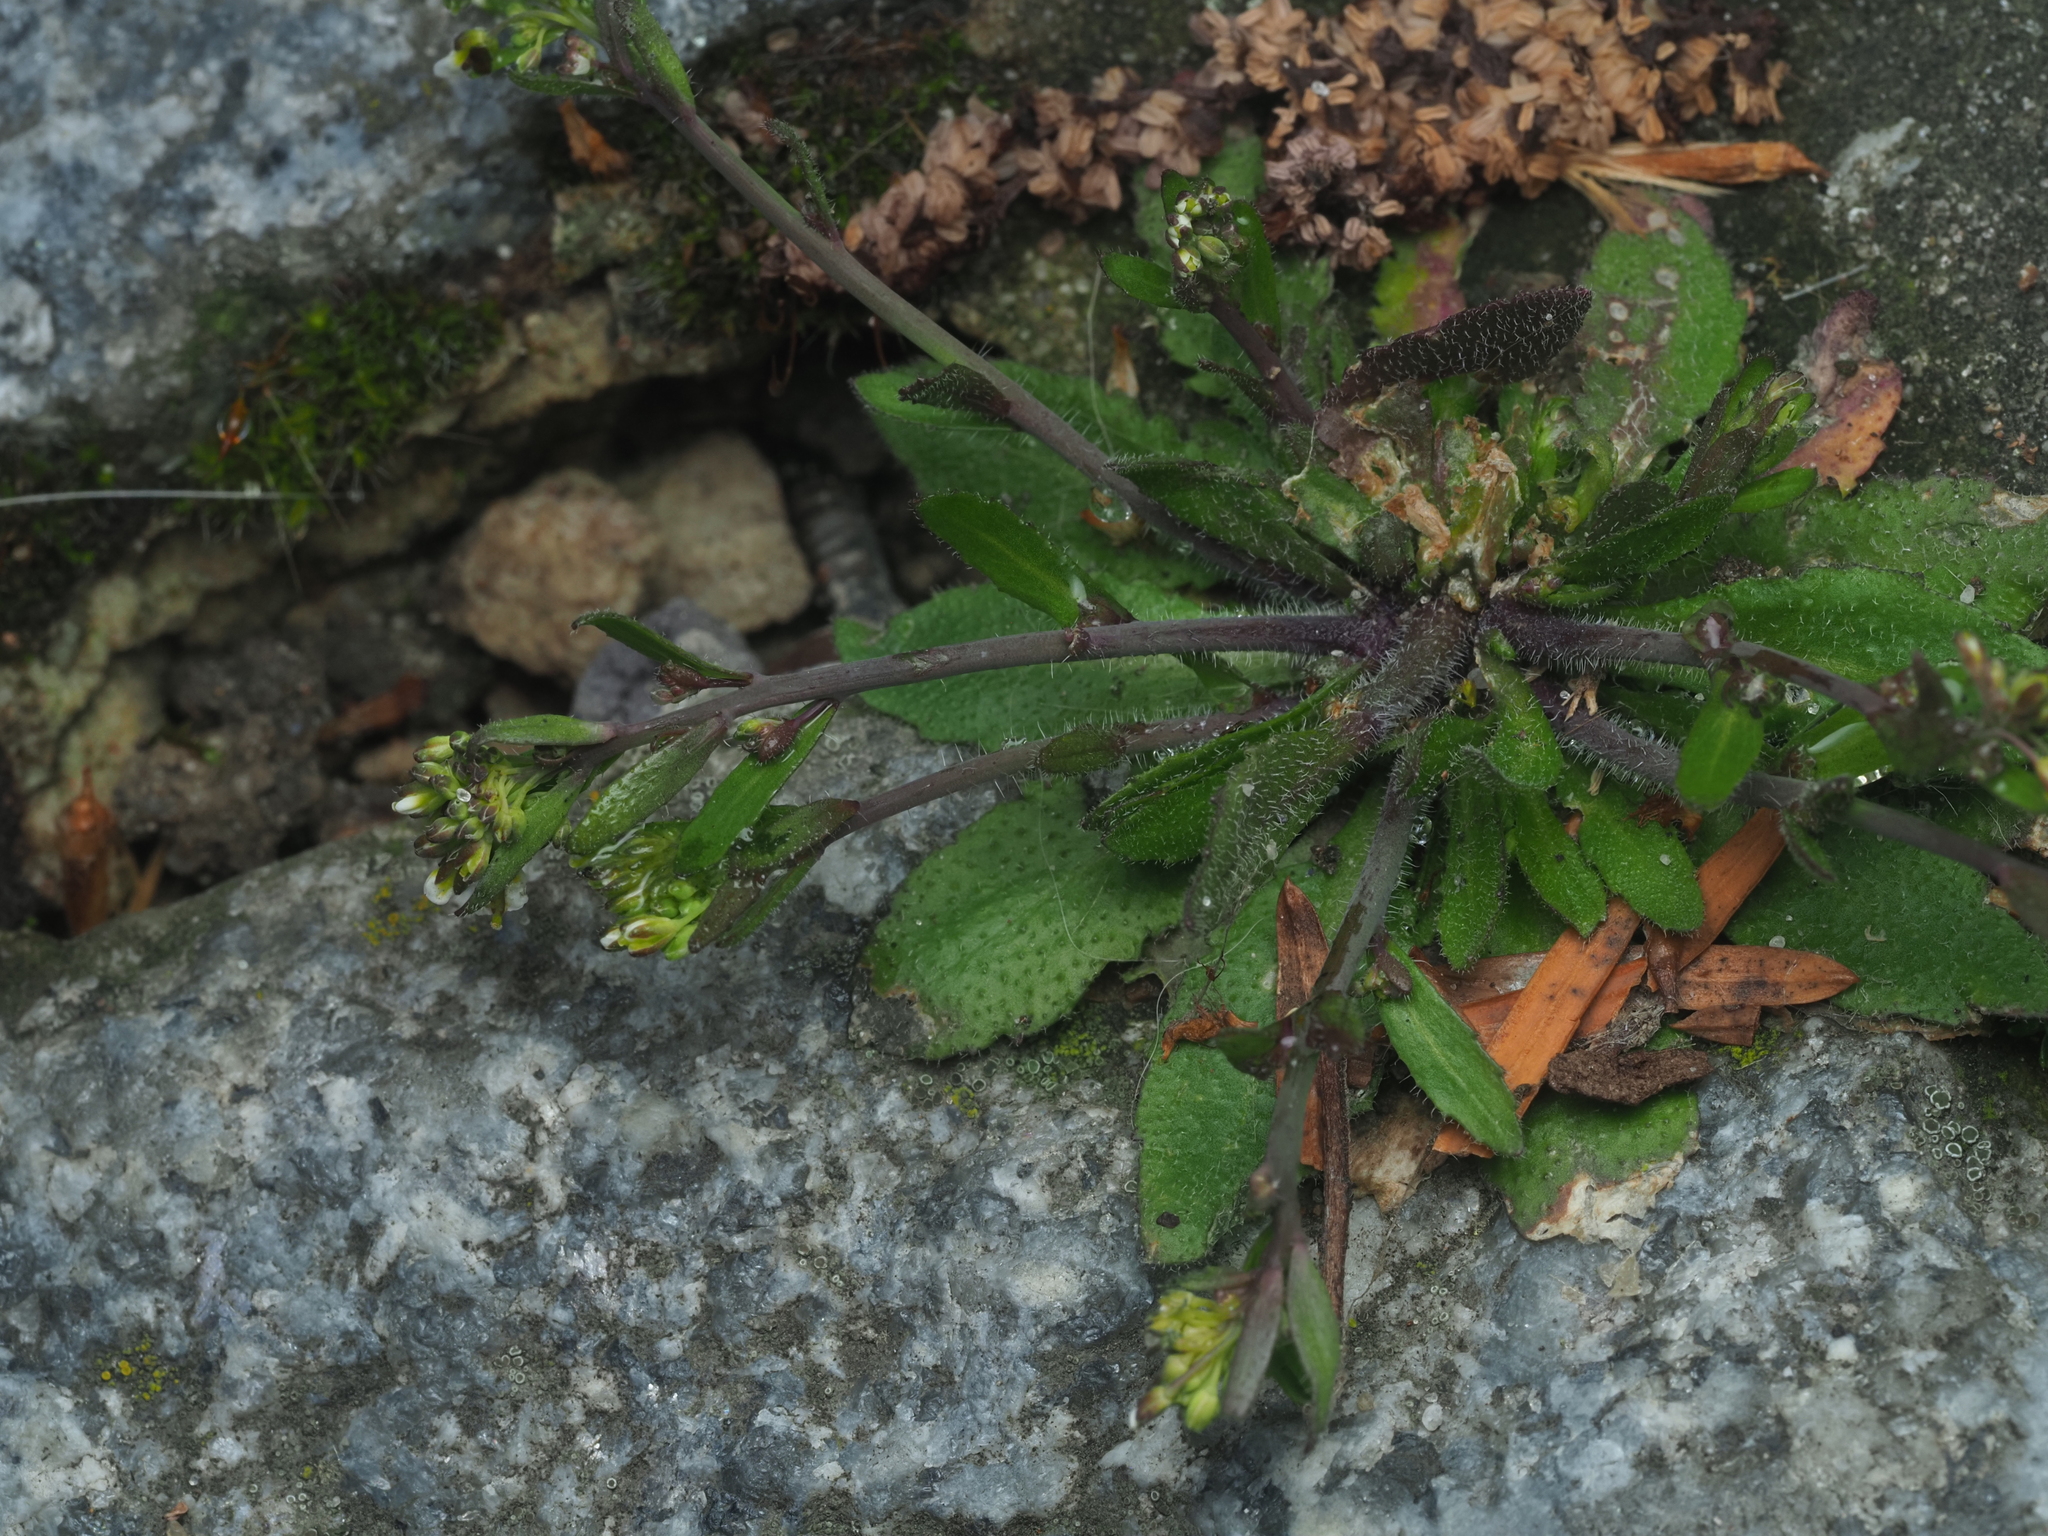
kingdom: Plantae
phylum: Tracheophyta
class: Magnoliopsida
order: Brassicales
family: Brassicaceae
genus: Arabidopsis
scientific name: Arabidopsis thaliana
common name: Thale cress
